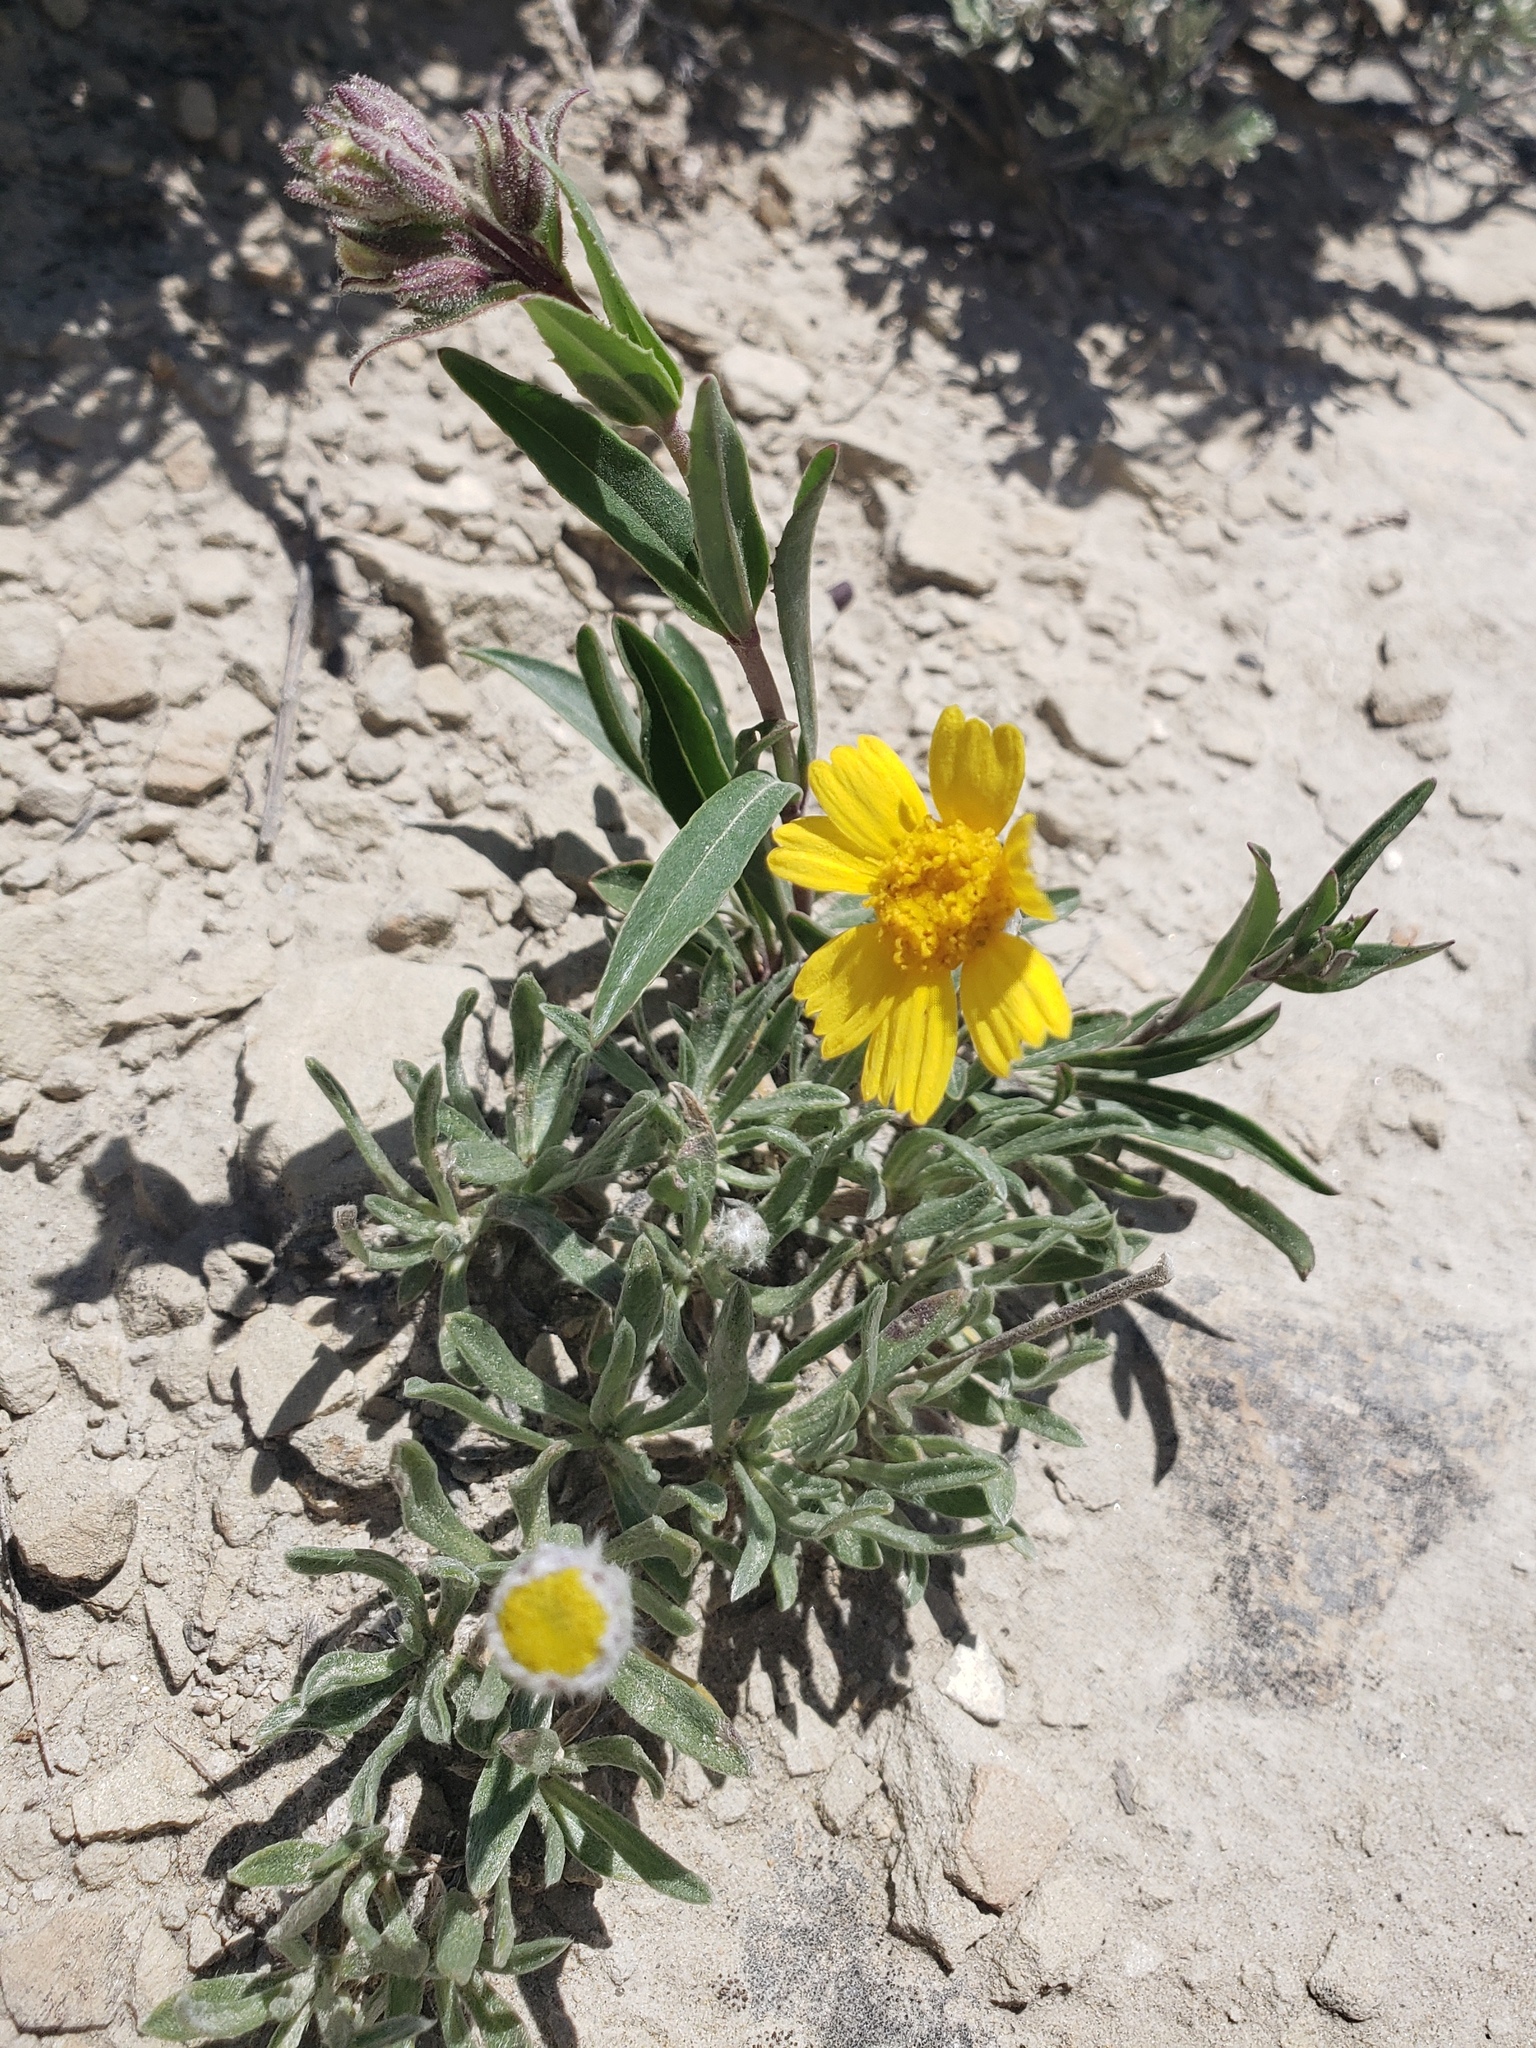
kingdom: Plantae
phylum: Tracheophyta
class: Magnoliopsida
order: Asterales
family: Asteraceae
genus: Tetraneuris
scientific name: Tetraneuris acaulis
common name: Butte marigold
